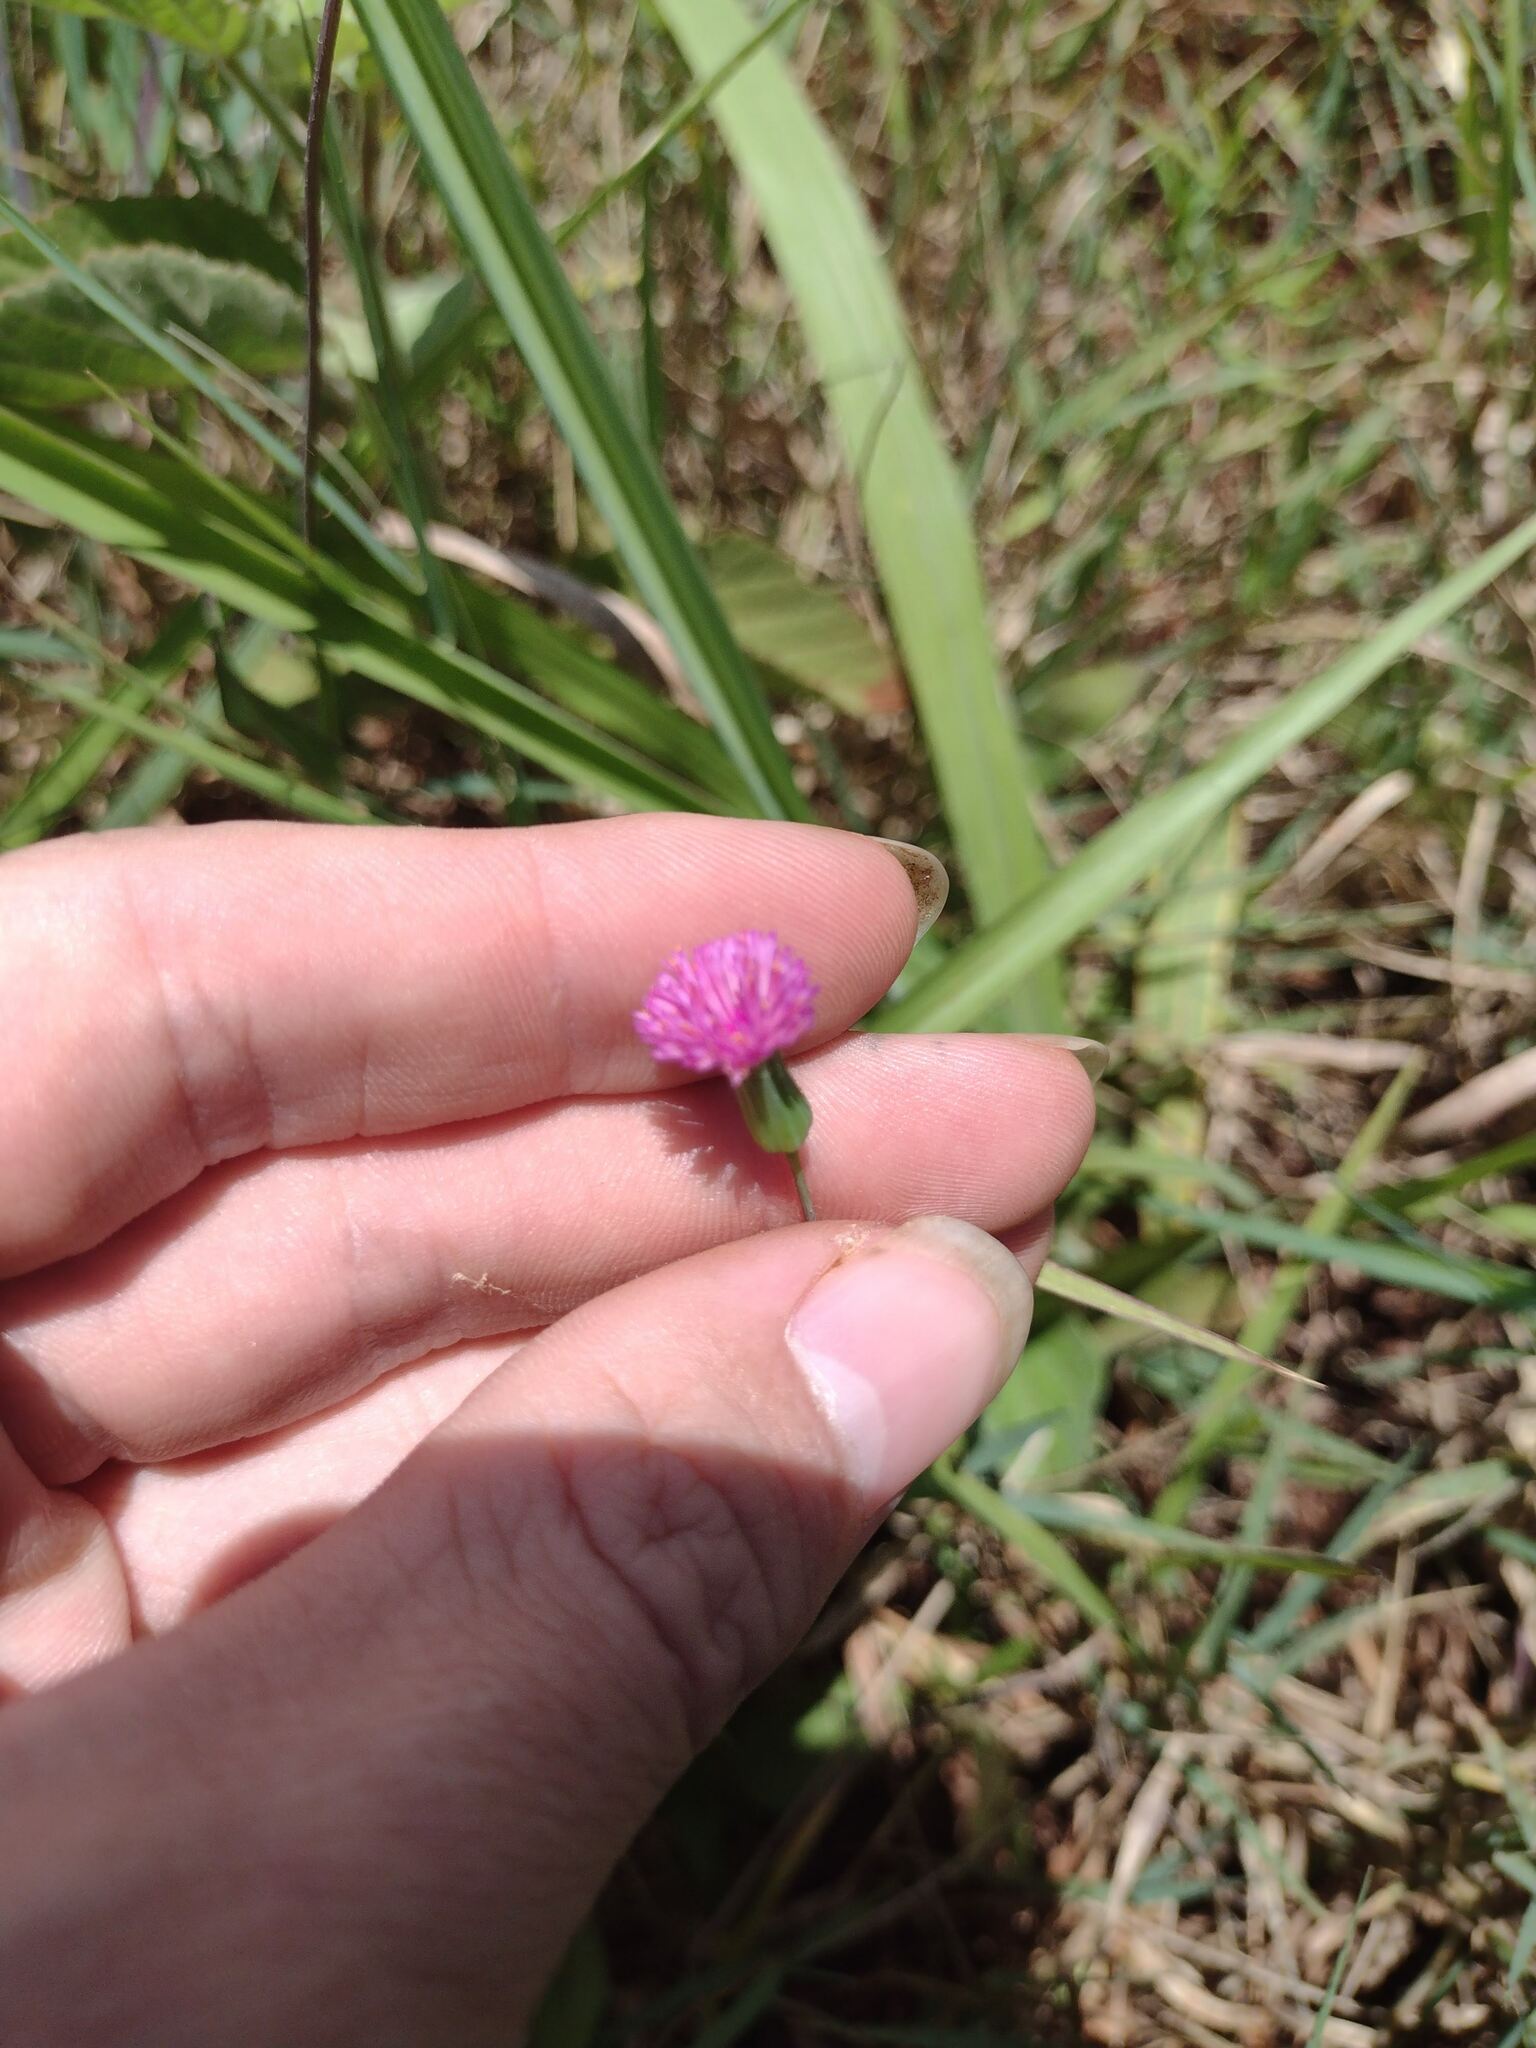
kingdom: Plantae
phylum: Tracheophyta
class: Magnoliopsida
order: Asterales
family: Asteraceae
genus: Emilia
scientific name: Emilia sonchifolia
